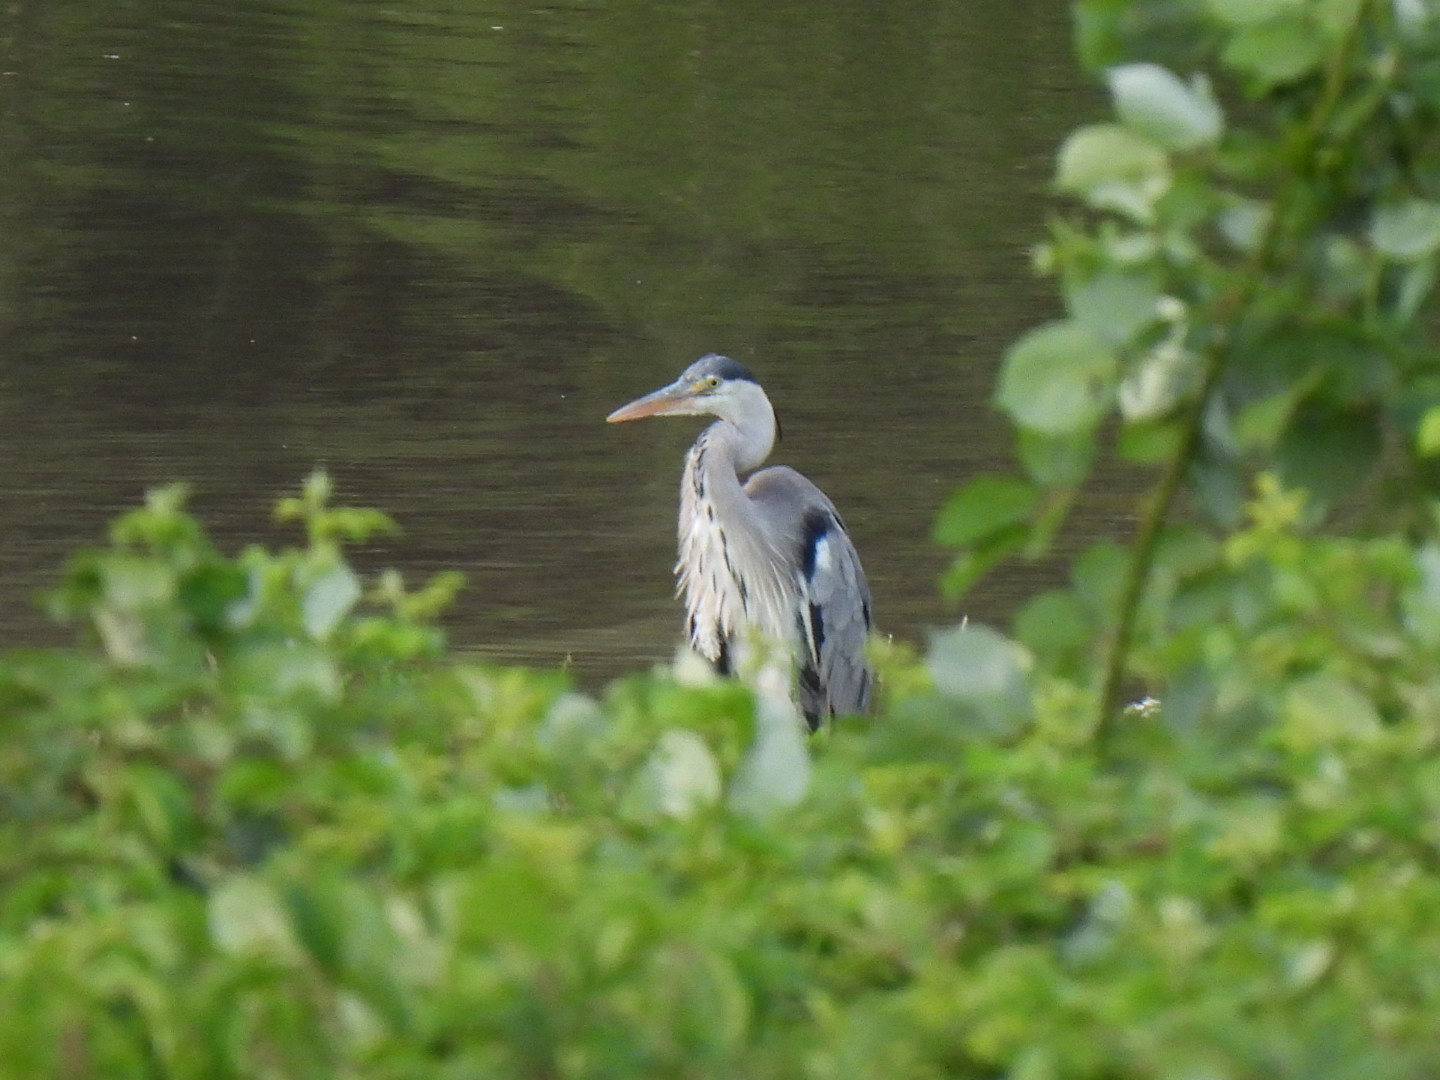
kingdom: Animalia
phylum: Chordata
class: Aves
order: Pelecaniformes
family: Ardeidae
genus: Ardea
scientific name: Ardea cinerea
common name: Grey heron
